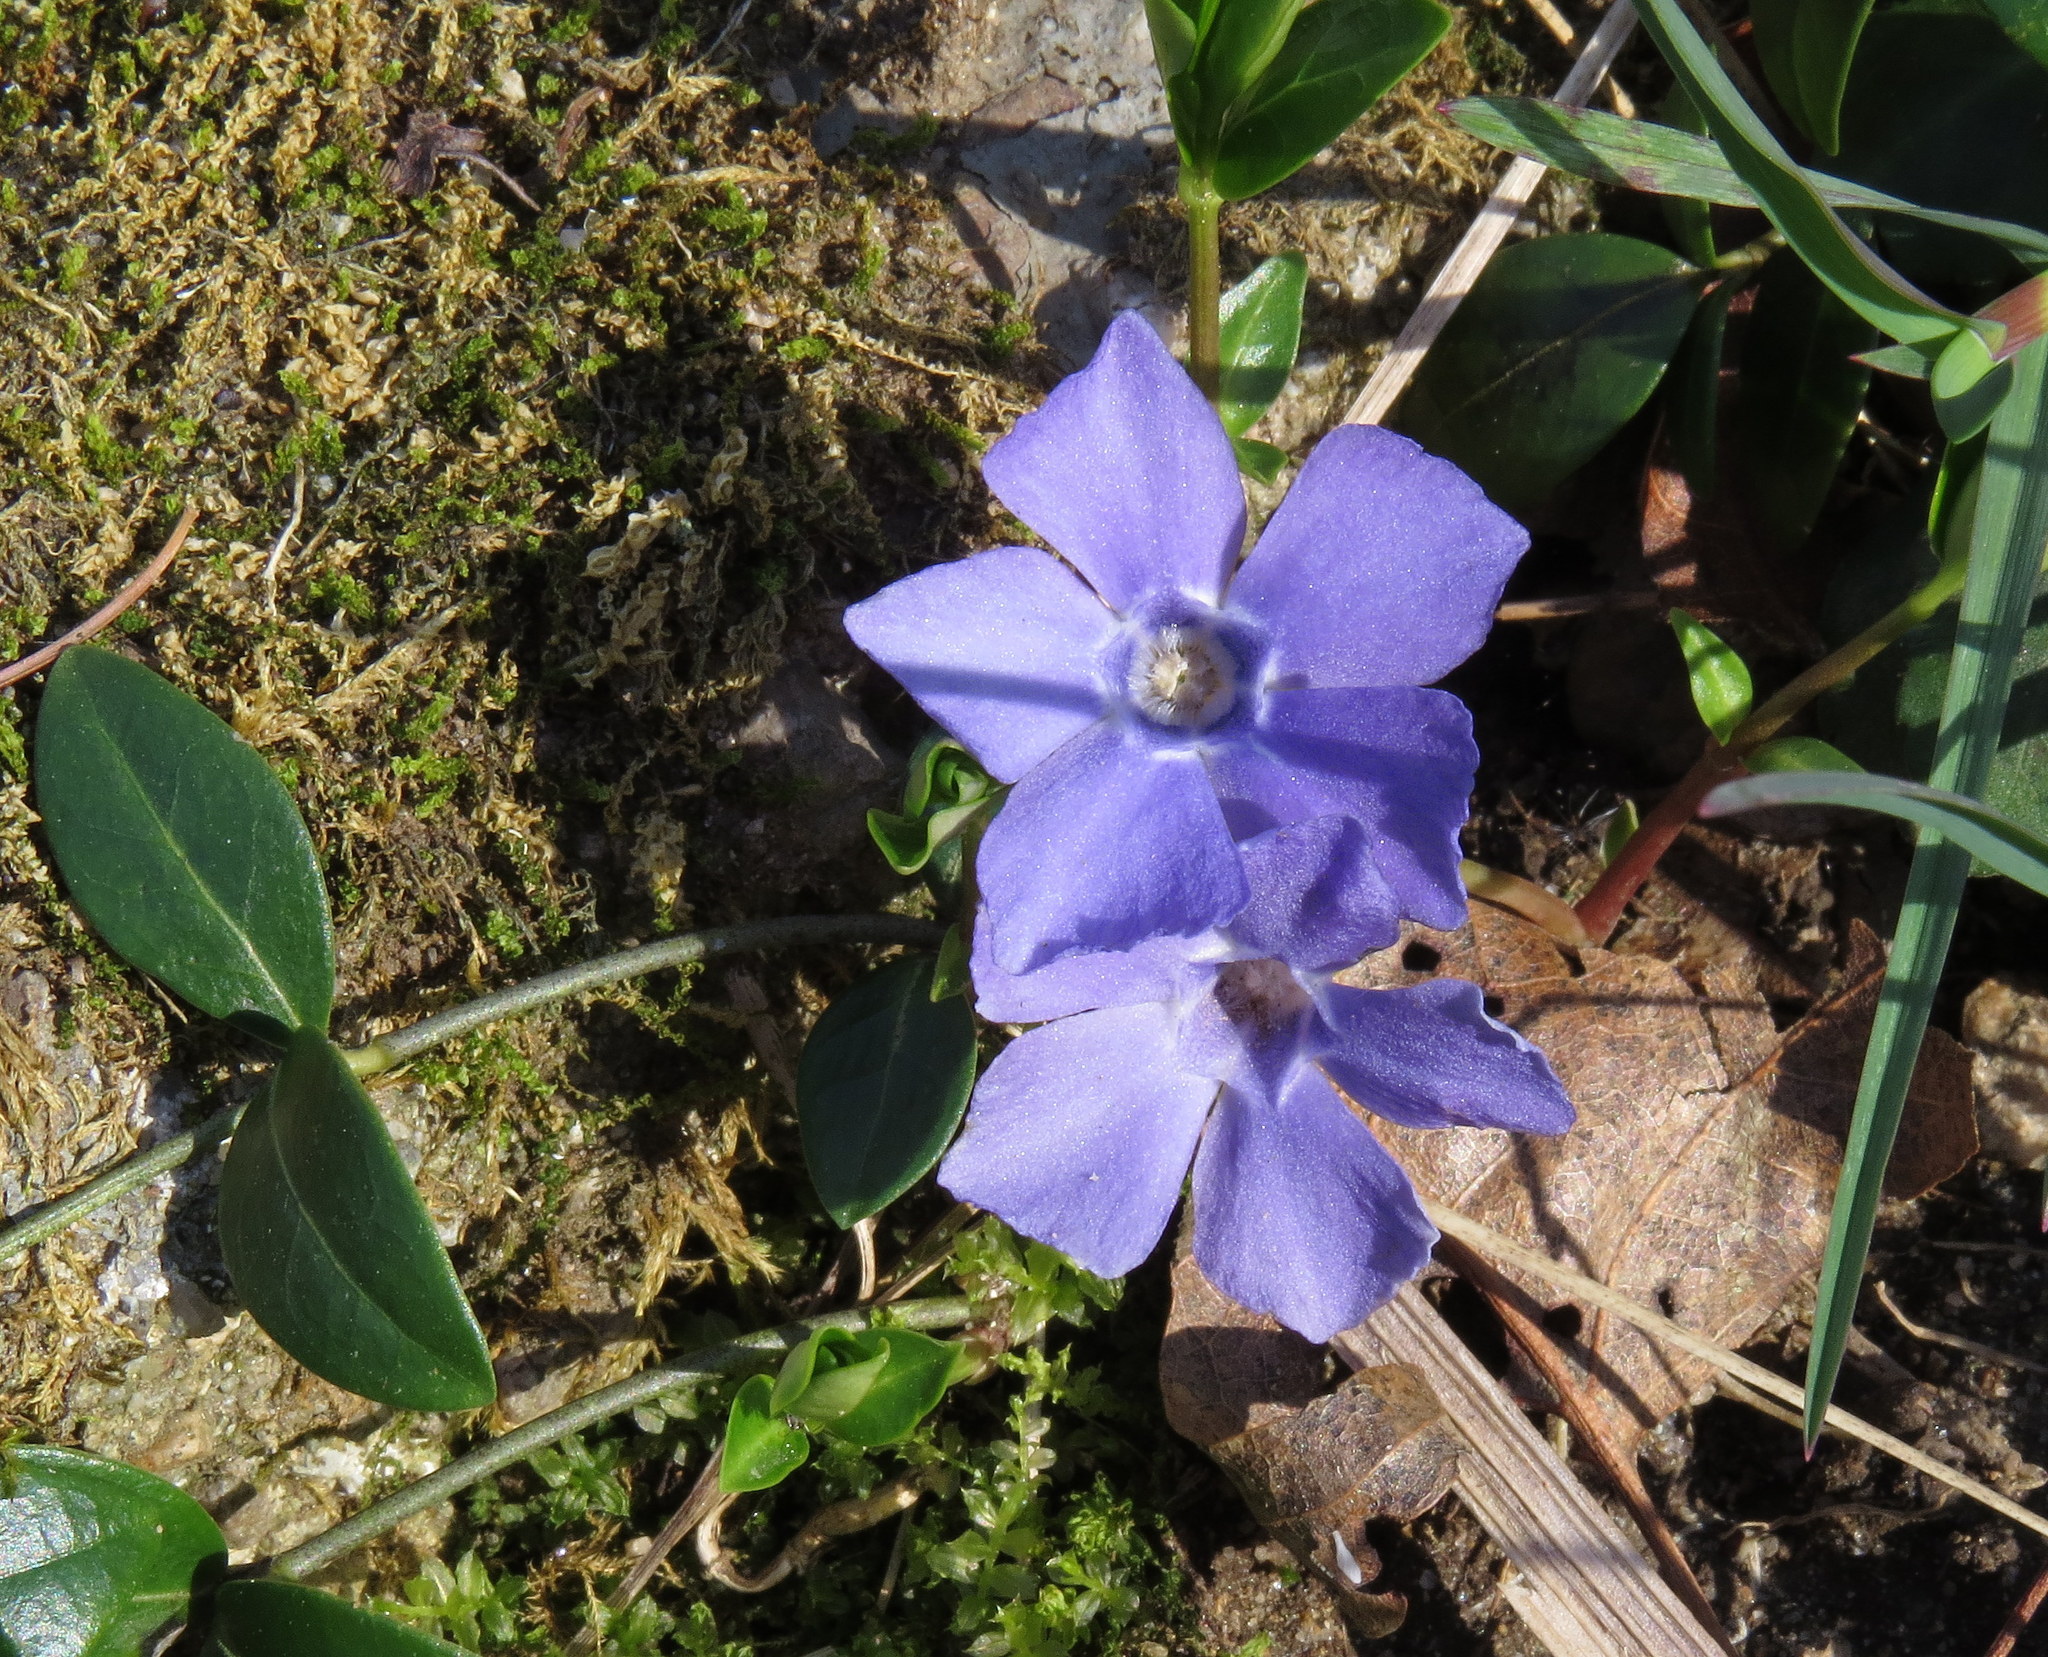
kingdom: Plantae
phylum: Tracheophyta
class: Magnoliopsida
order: Gentianales
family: Apocynaceae
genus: Vinca
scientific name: Vinca minor
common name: Lesser periwinkle
